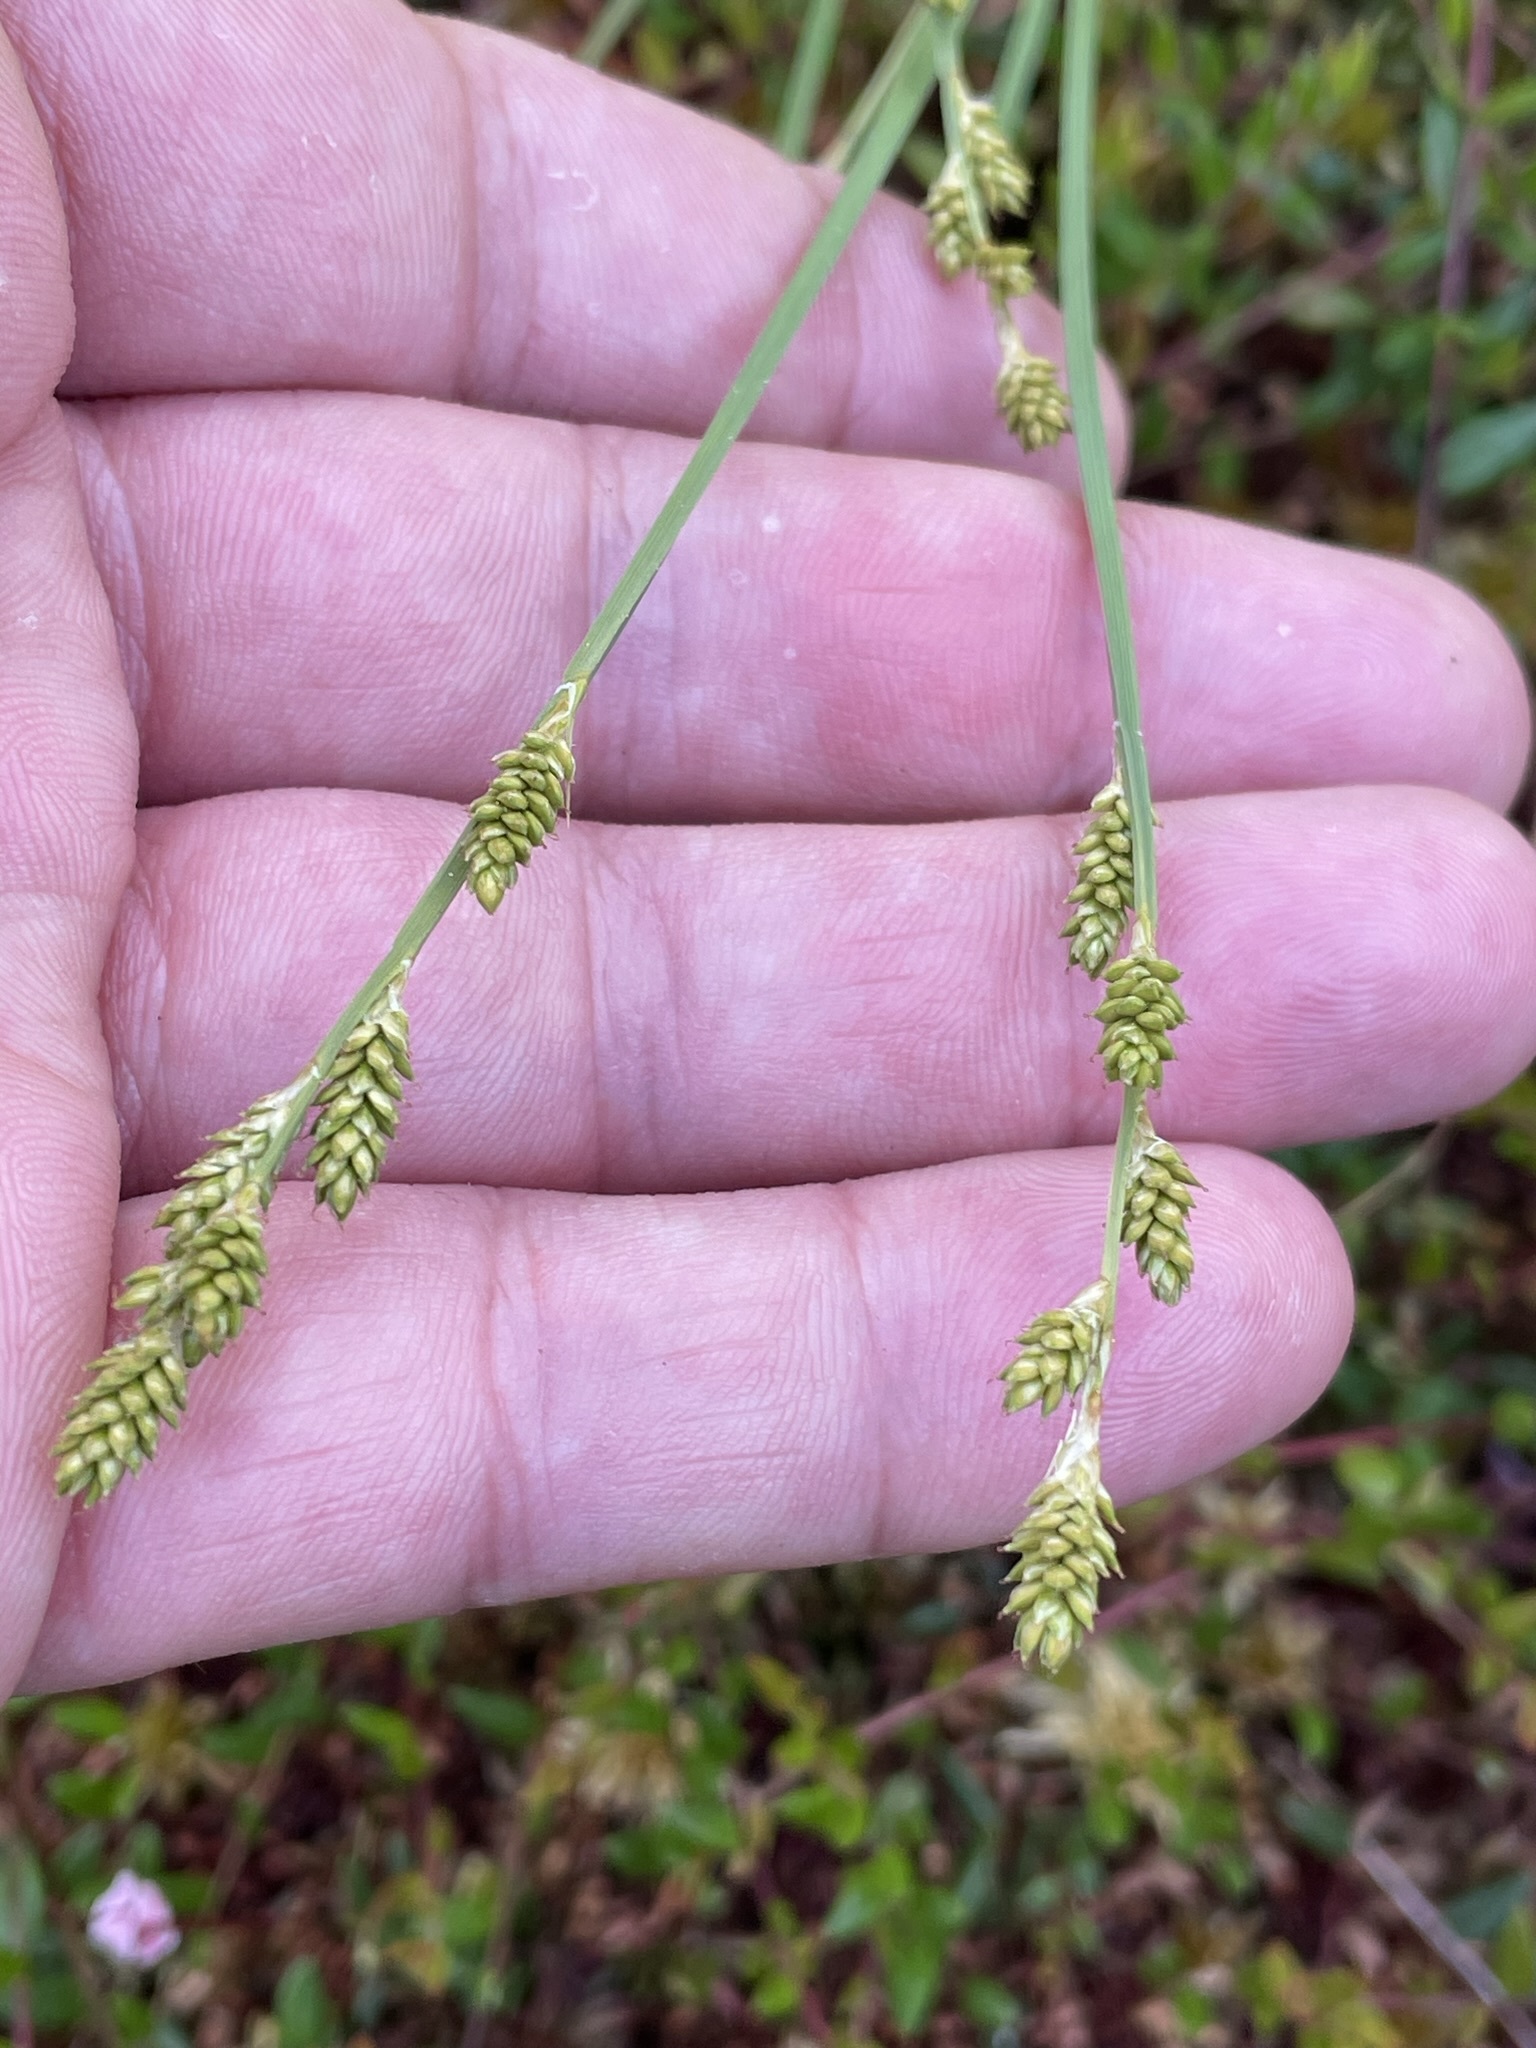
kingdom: Plantae
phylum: Tracheophyta
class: Liliopsida
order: Poales
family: Cyperaceae
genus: Carex
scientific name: Carex canescens
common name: White sedge
